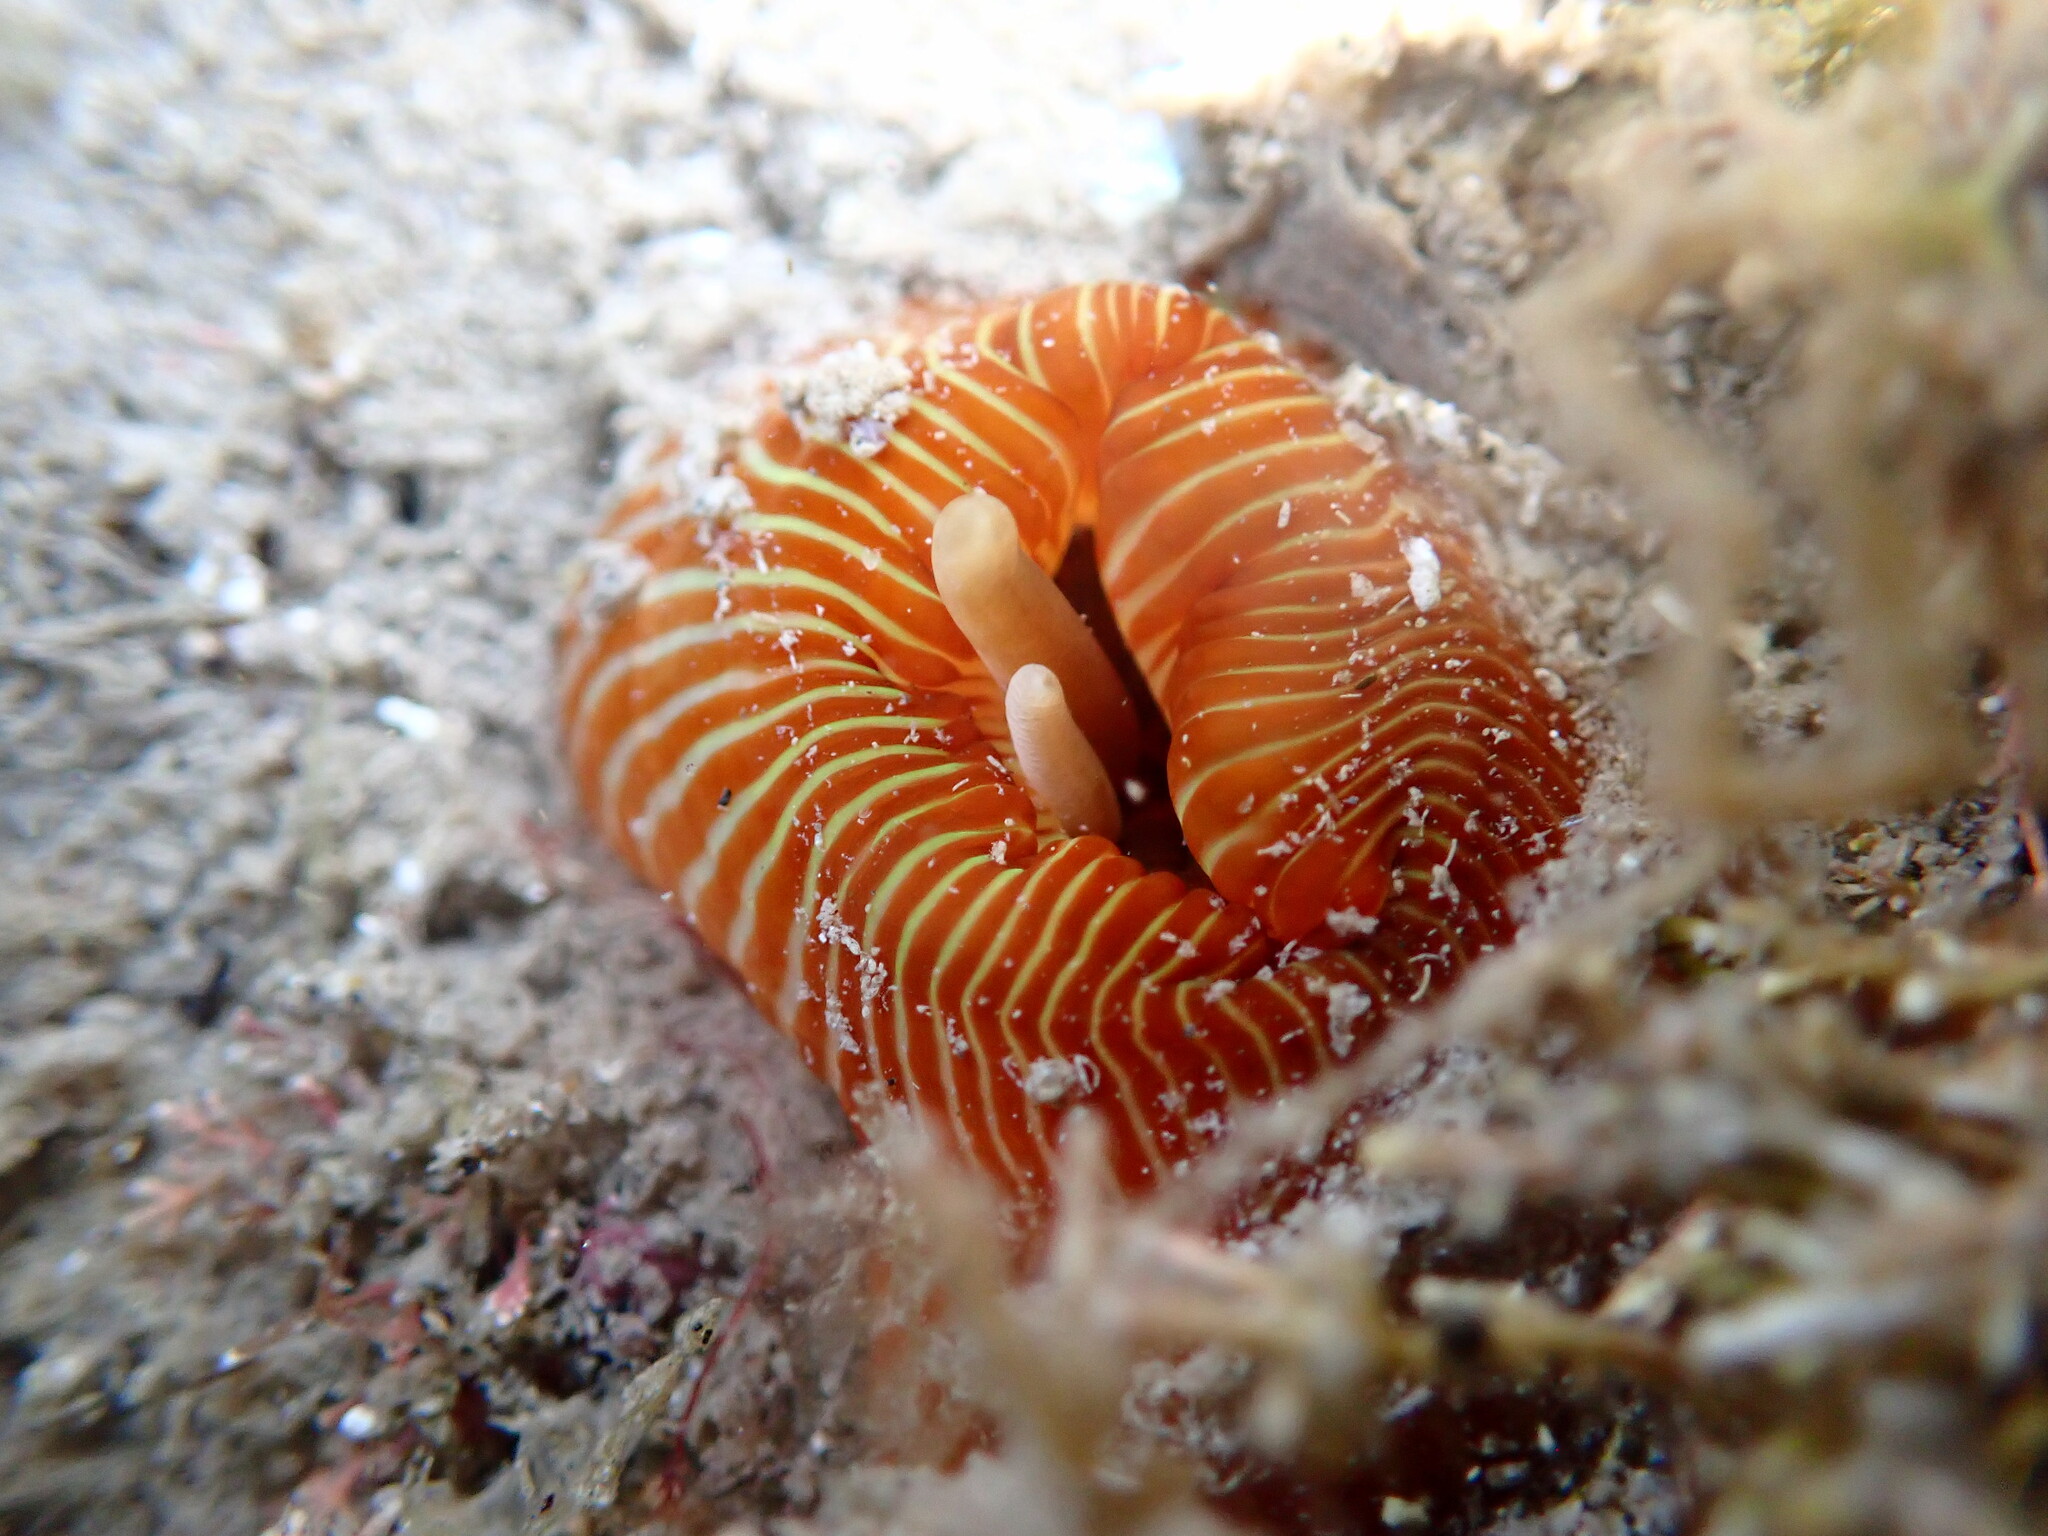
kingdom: Animalia
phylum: Cnidaria
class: Anthozoa
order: Actiniaria
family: Actiniidae
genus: Epiactis
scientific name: Epiactis thompsoni
